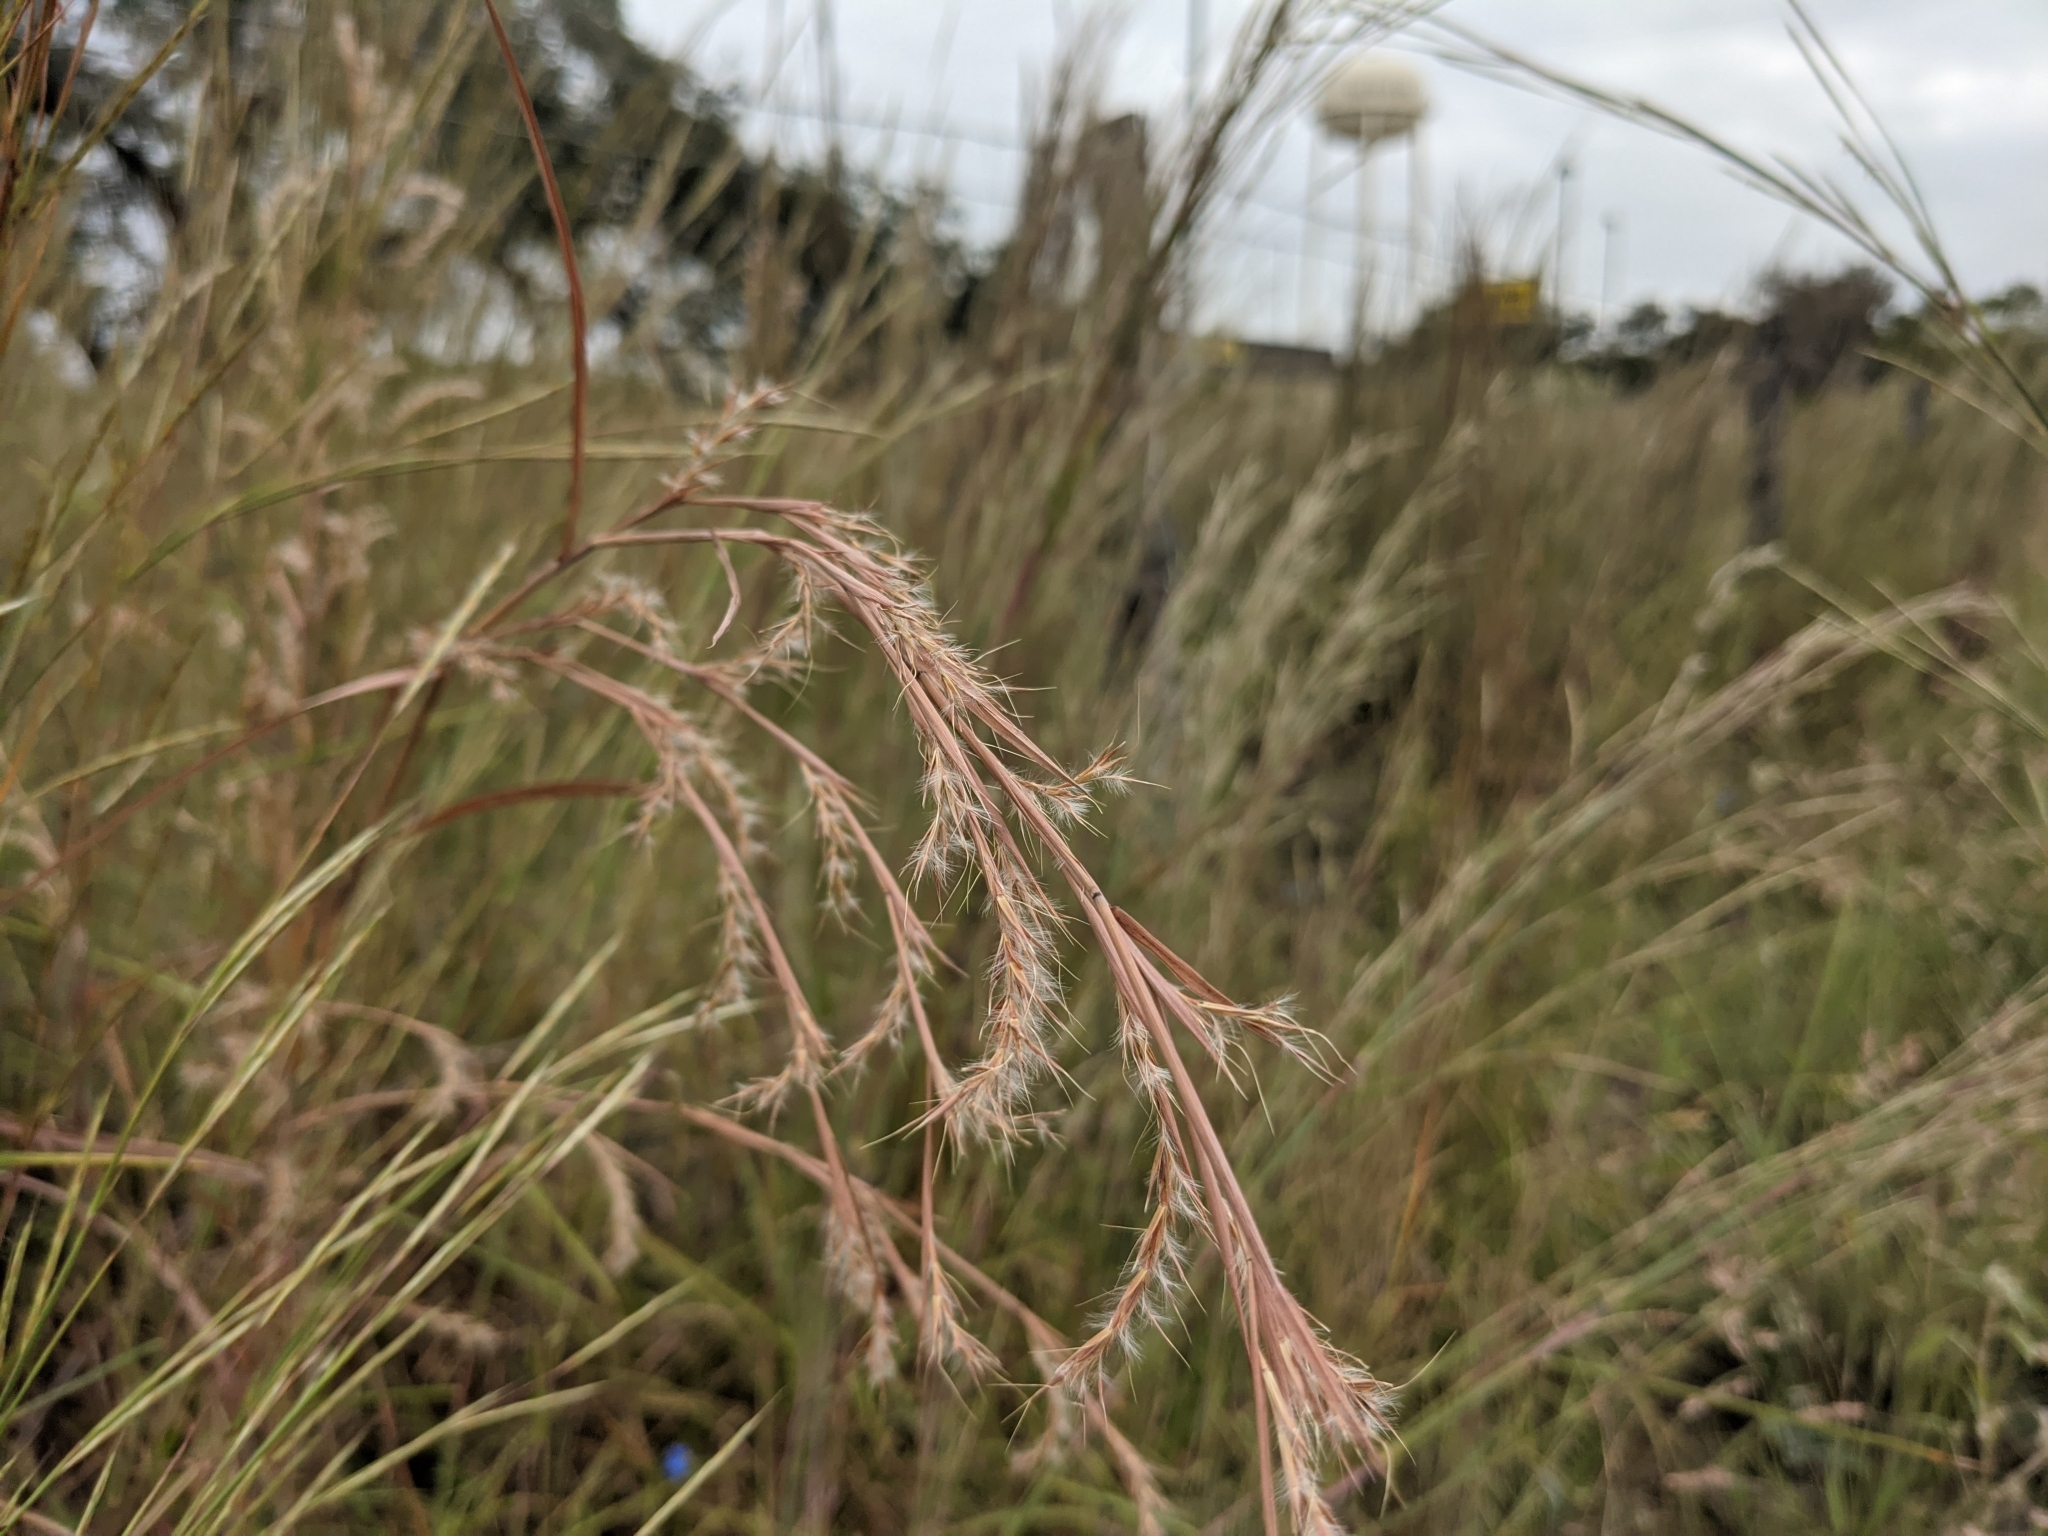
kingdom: Plantae
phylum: Tracheophyta
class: Liliopsida
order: Poales
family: Poaceae
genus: Schizachyrium
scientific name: Schizachyrium scoparium
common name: Little bluestem
